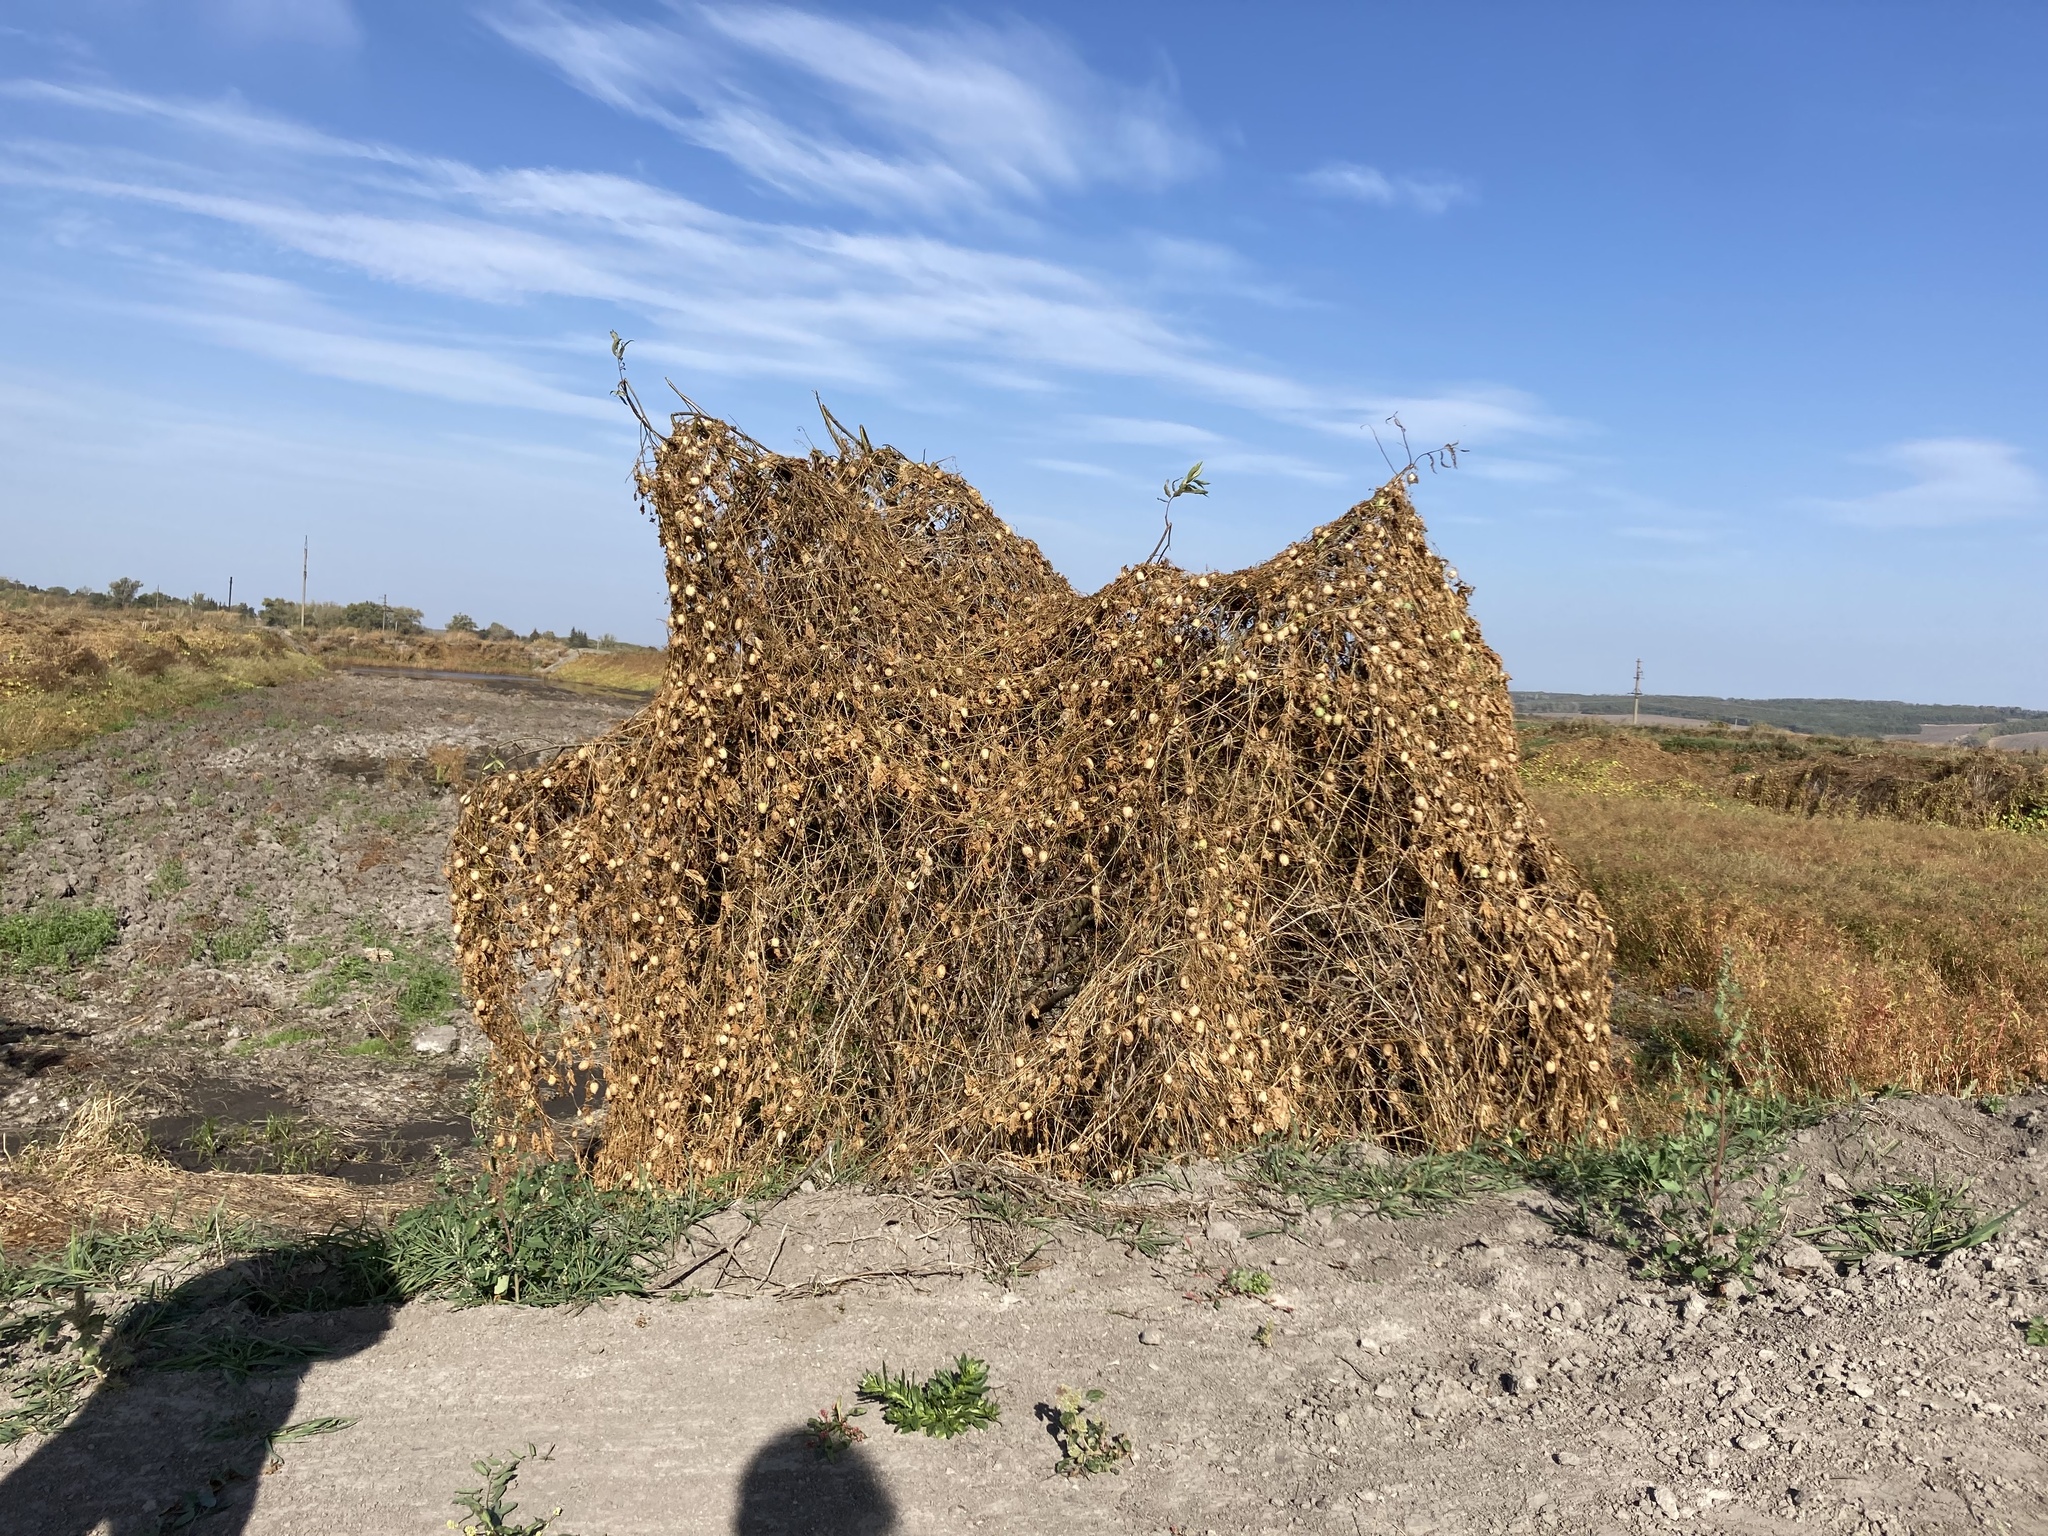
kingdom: Plantae
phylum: Tracheophyta
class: Magnoliopsida
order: Cucurbitales
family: Cucurbitaceae
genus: Echinocystis
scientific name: Echinocystis lobata
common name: Wild cucumber
